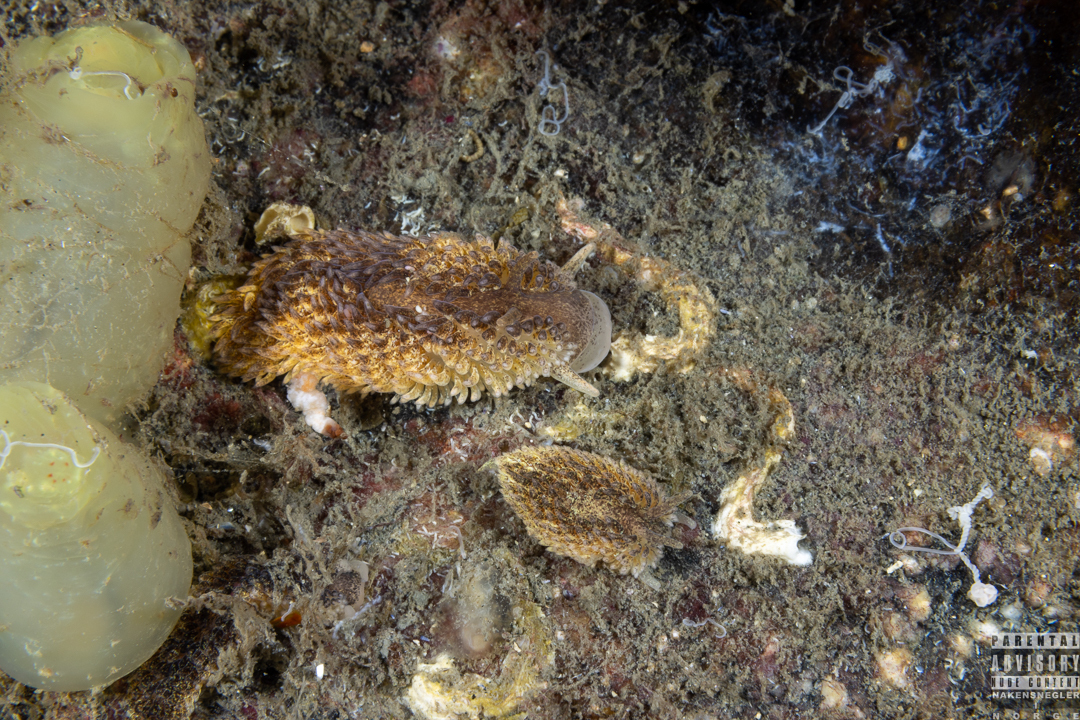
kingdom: Animalia
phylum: Mollusca
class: Gastropoda
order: Nudibranchia
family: Aeolidiidae
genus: Aeolidia
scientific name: Aeolidia papillosa
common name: Common grey sea slug
